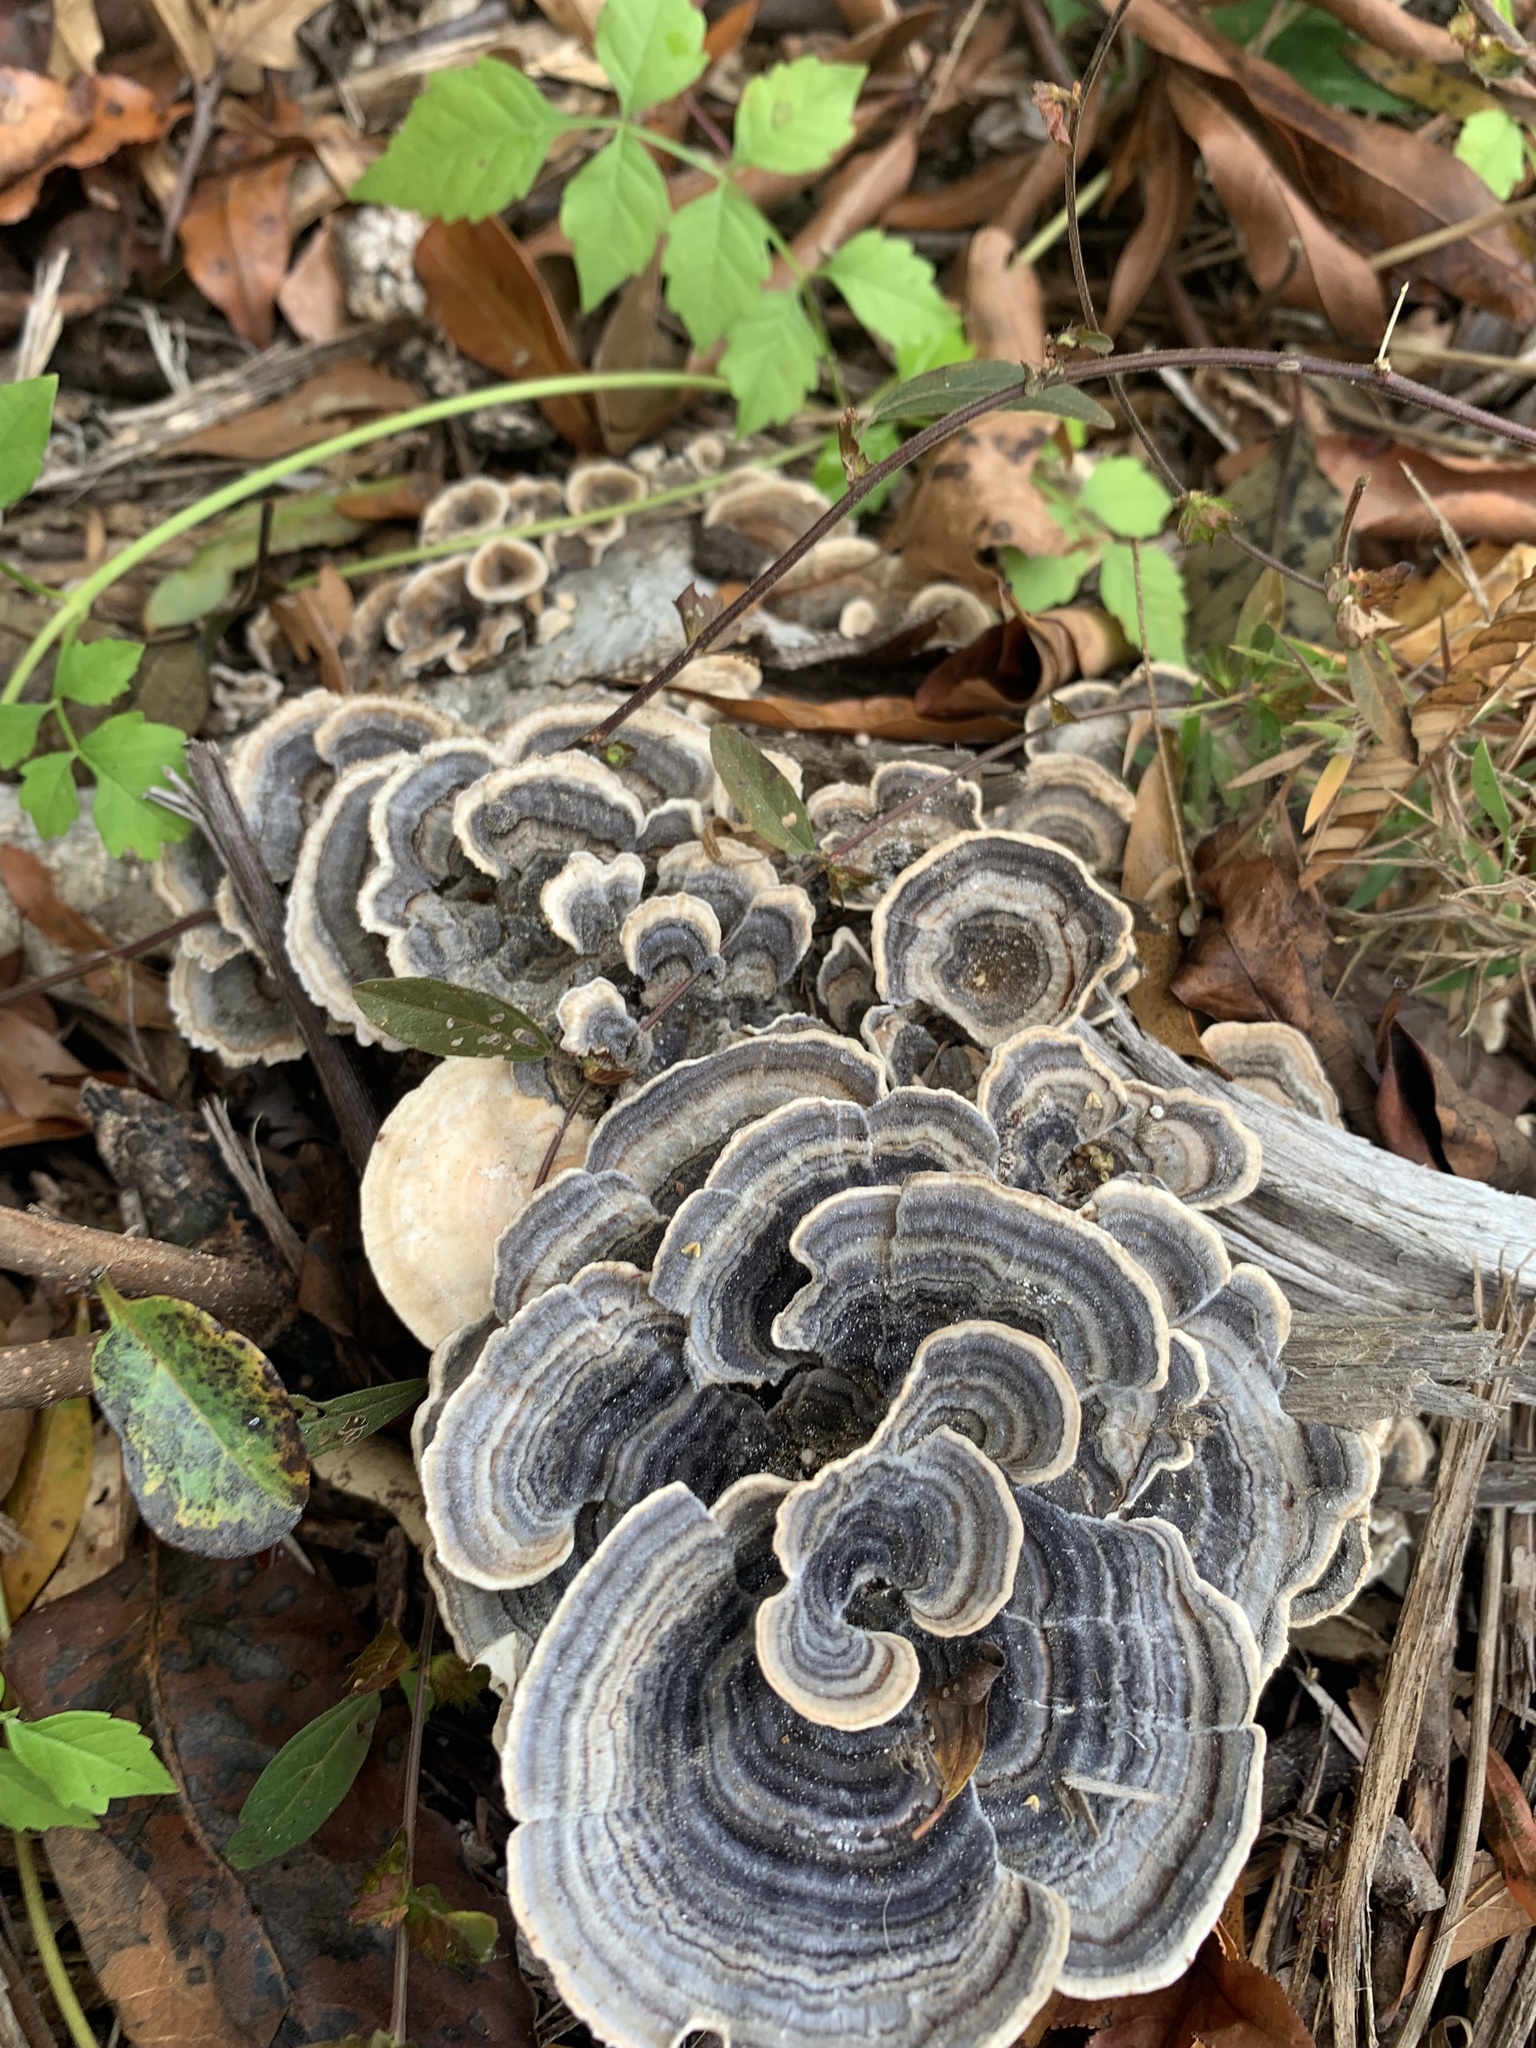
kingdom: Fungi
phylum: Basidiomycota
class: Agaricomycetes
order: Polyporales
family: Polyporaceae
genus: Trametes
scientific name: Trametes versicolor
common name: Turkeytail
